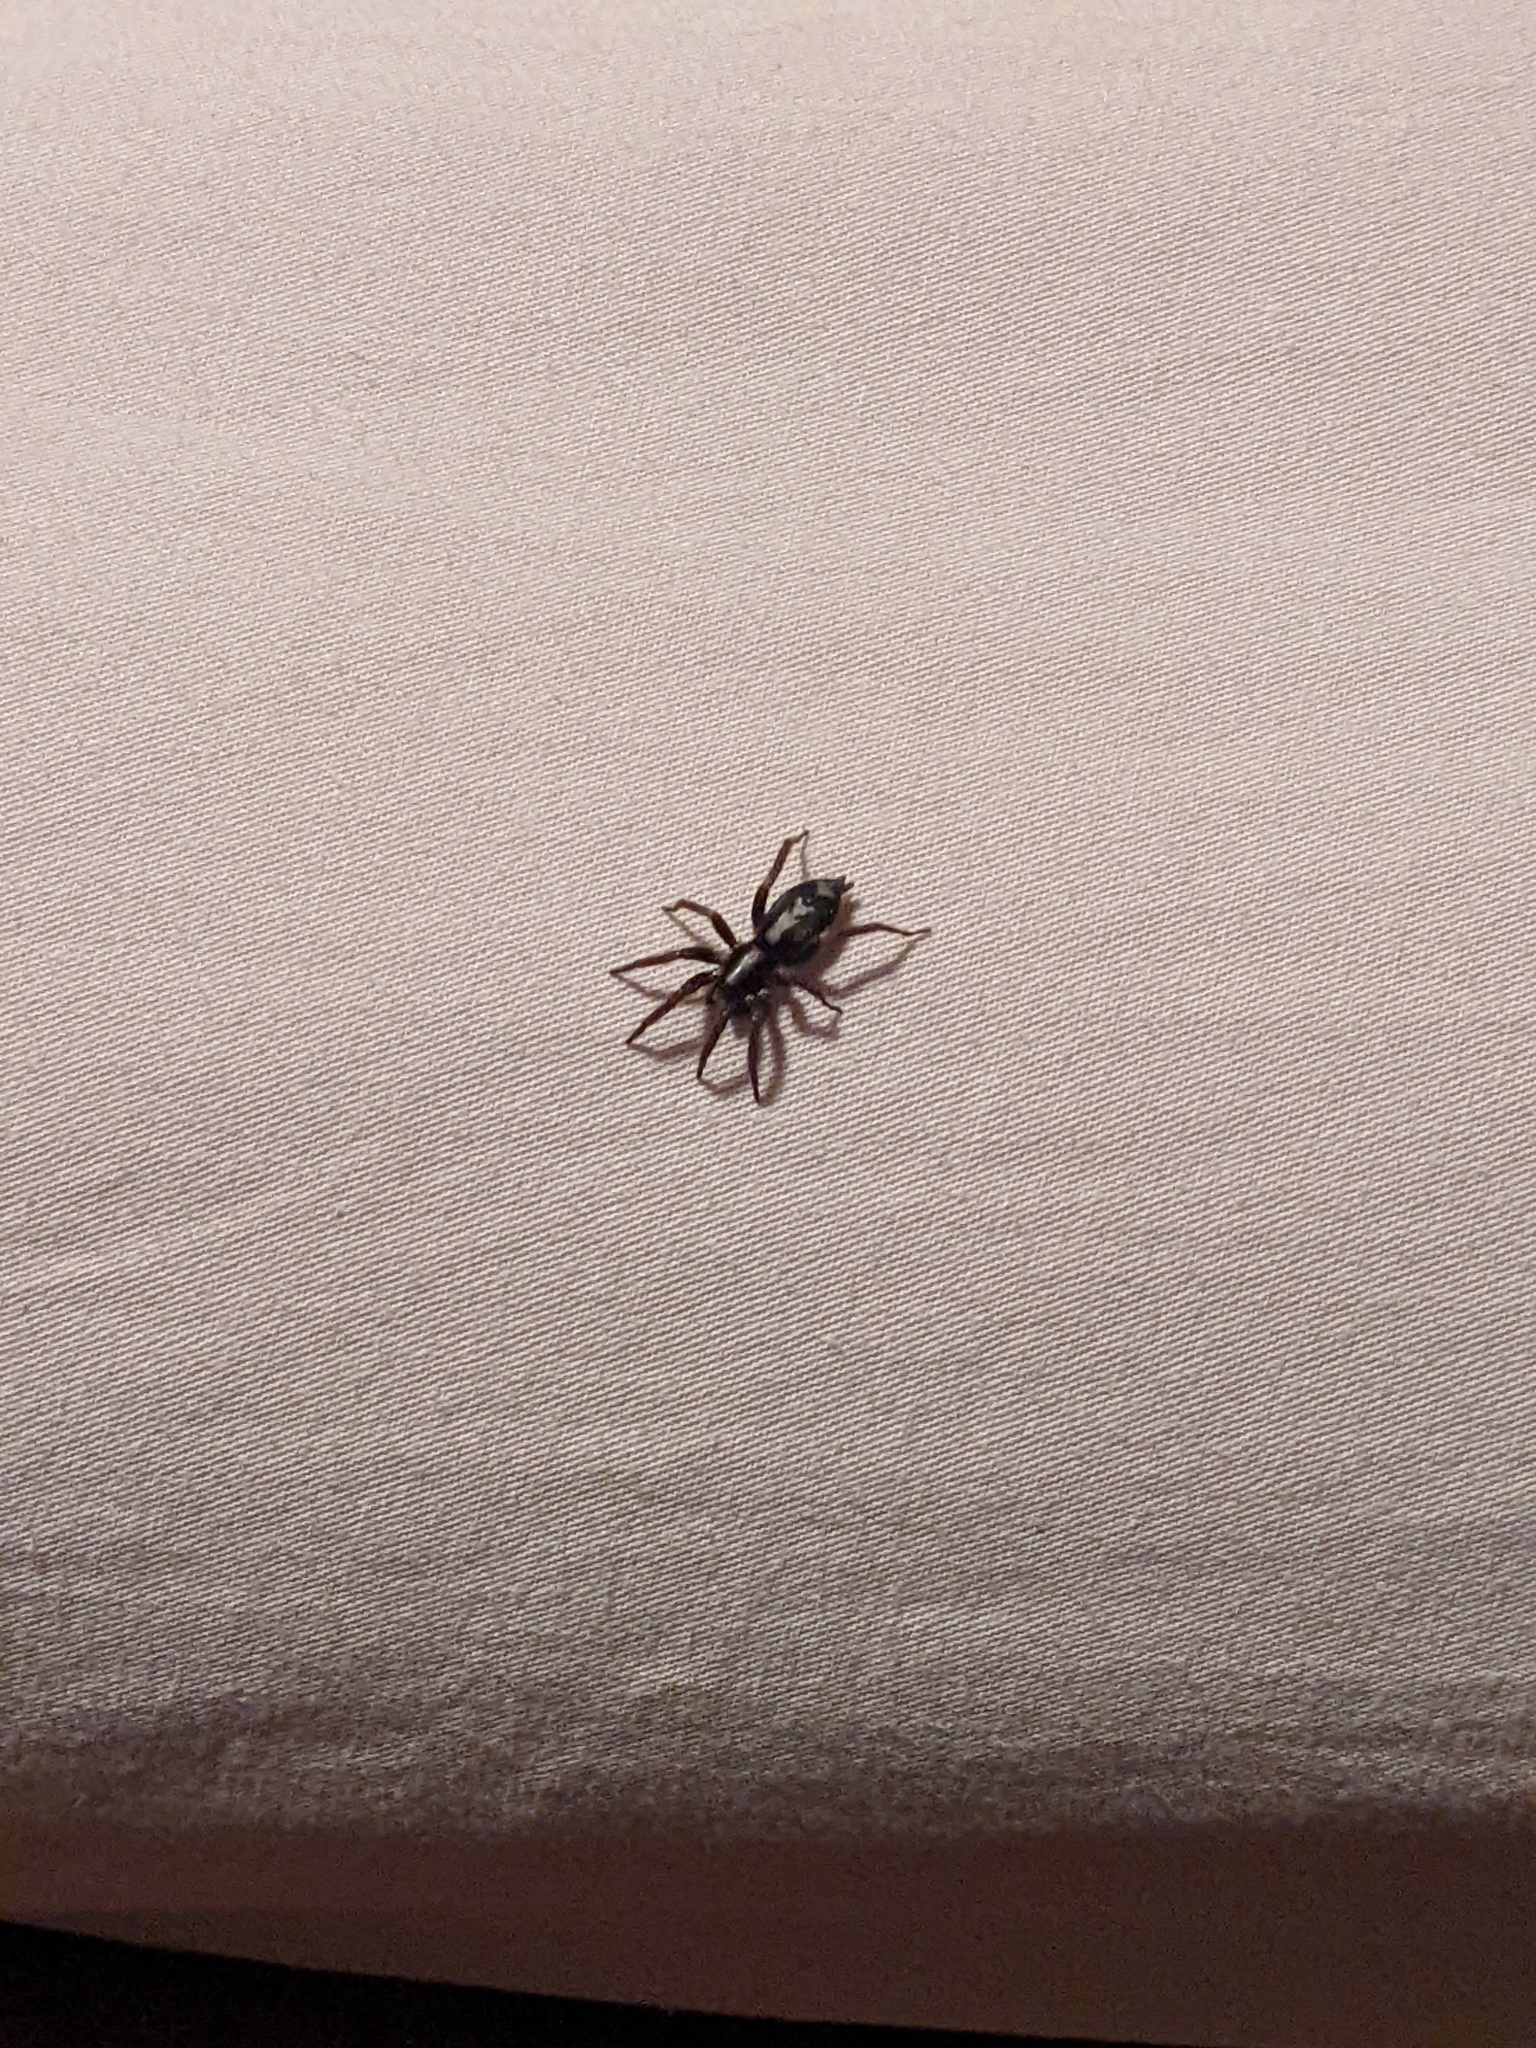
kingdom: Animalia
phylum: Arthropoda
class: Arachnida
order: Araneae
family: Gnaphosidae
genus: Herpyllus
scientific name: Herpyllus ecclesiasticus
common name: Eastern parson spider
